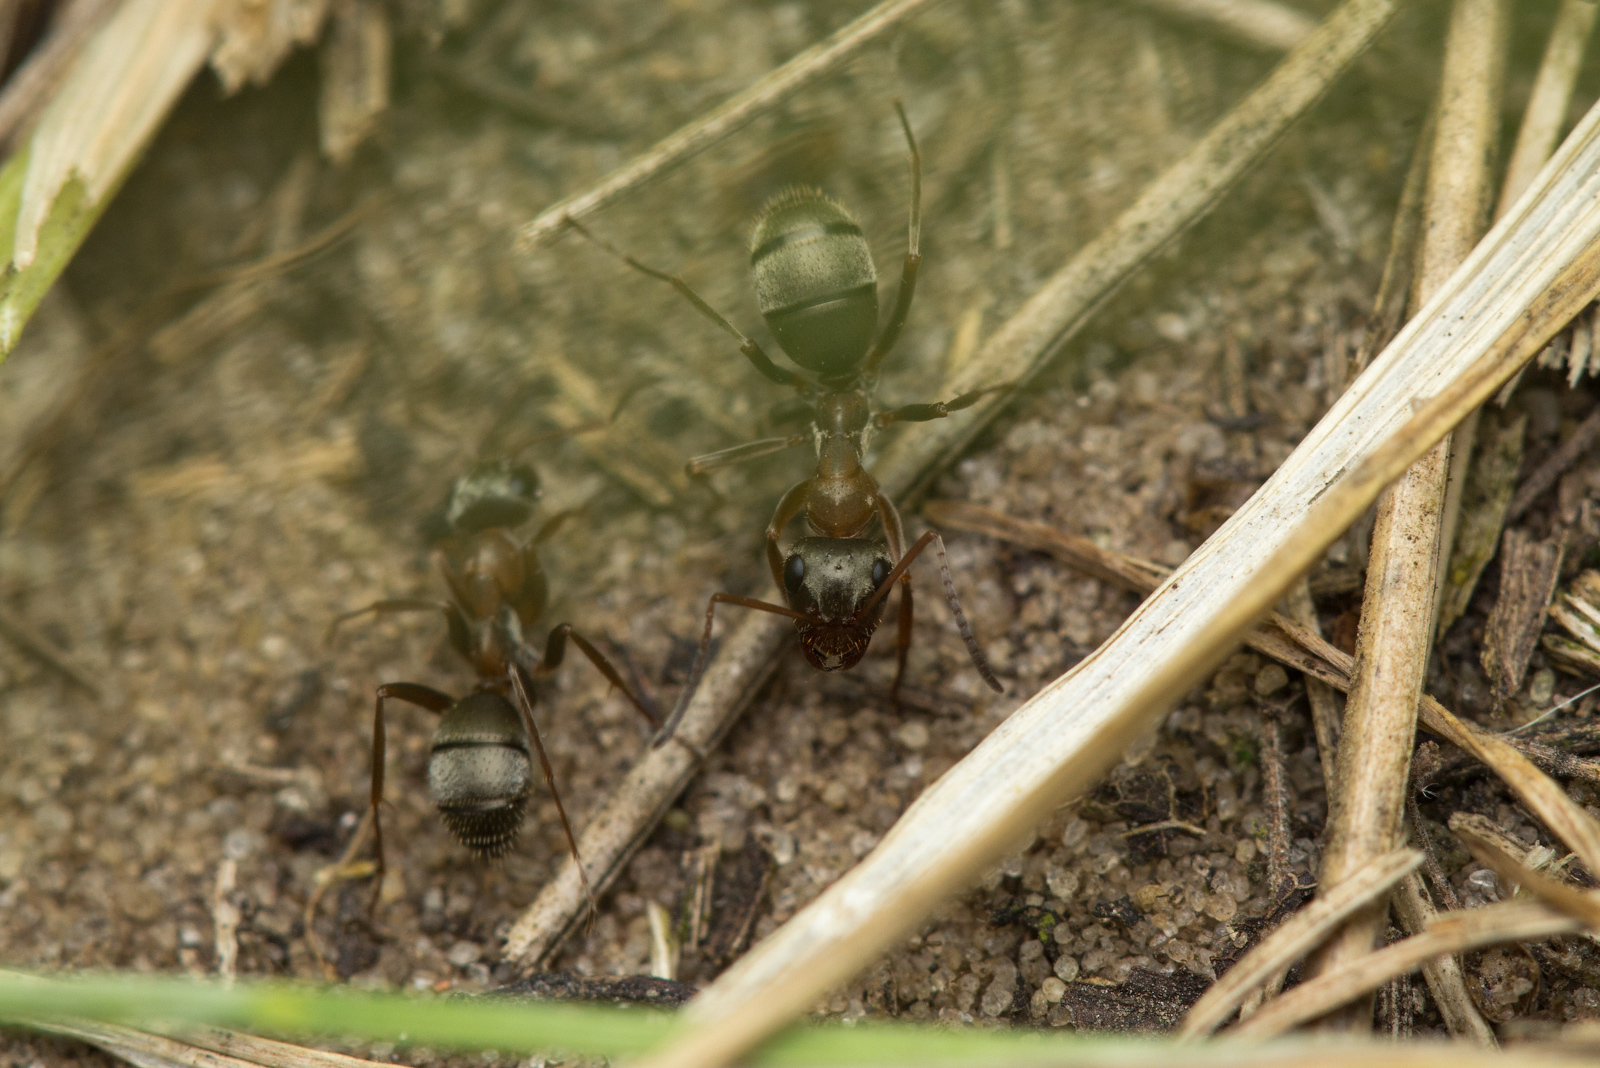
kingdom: Animalia
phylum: Arthropoda
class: Insecta
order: Hymenoptera
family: Formicidae
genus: Formica
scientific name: Formica cinerea
